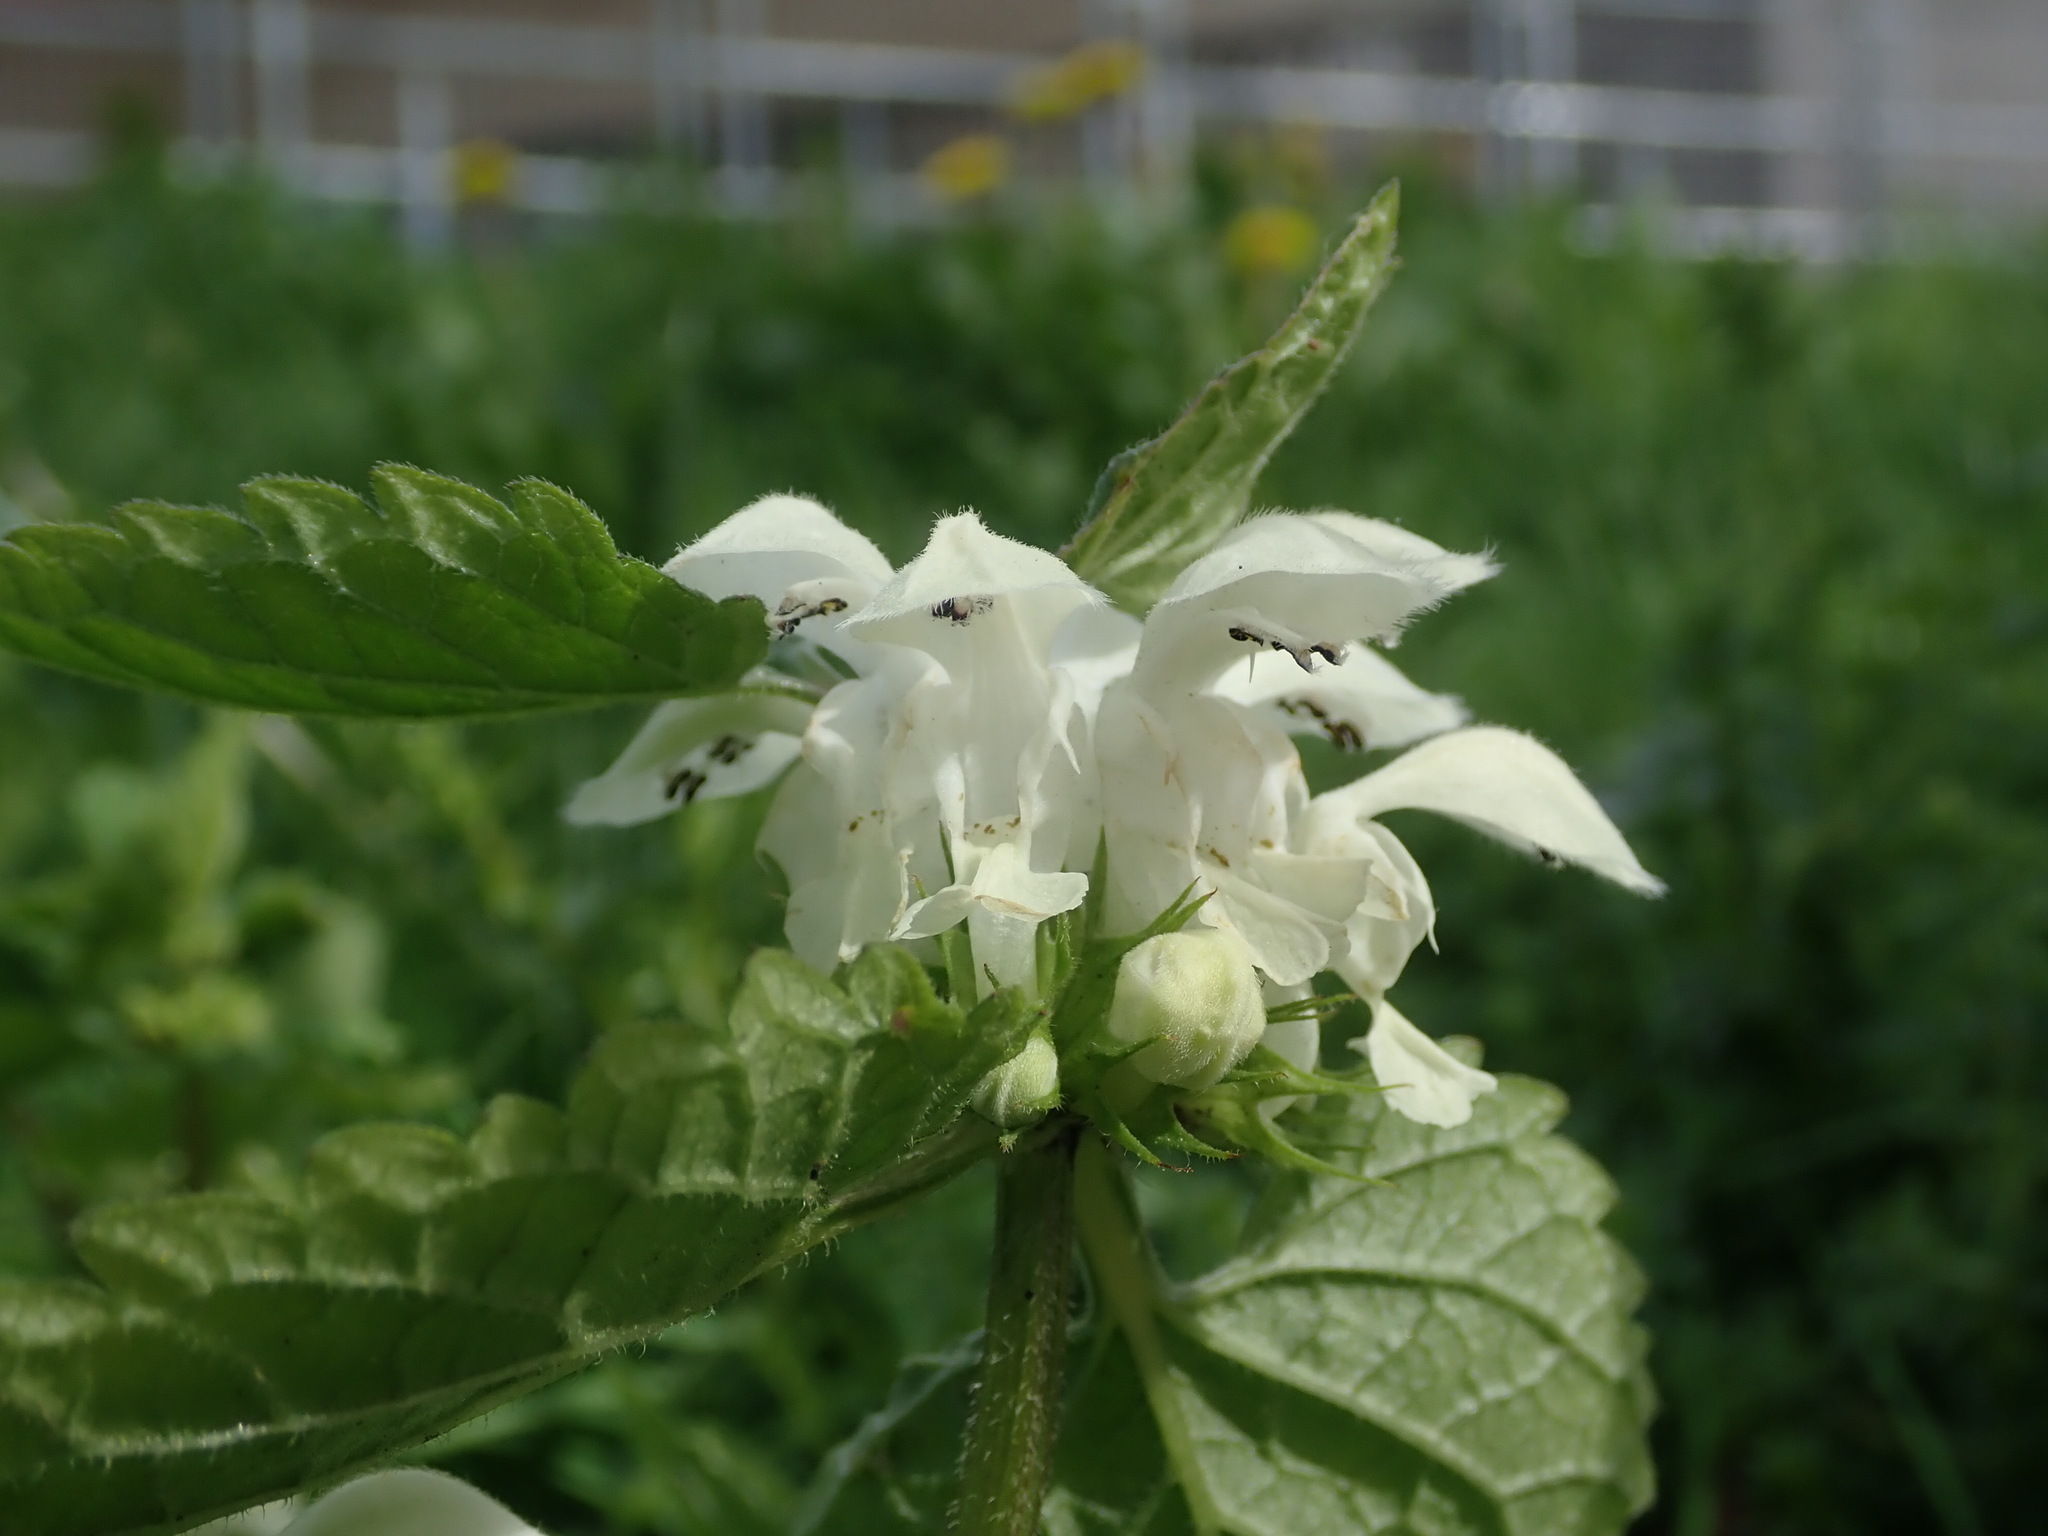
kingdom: Plantae
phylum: Tracheophyta
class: Magnoliopsida
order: Lamiales
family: Lamiaceae
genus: Lamium
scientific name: Lamium album
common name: White dead-nettle
